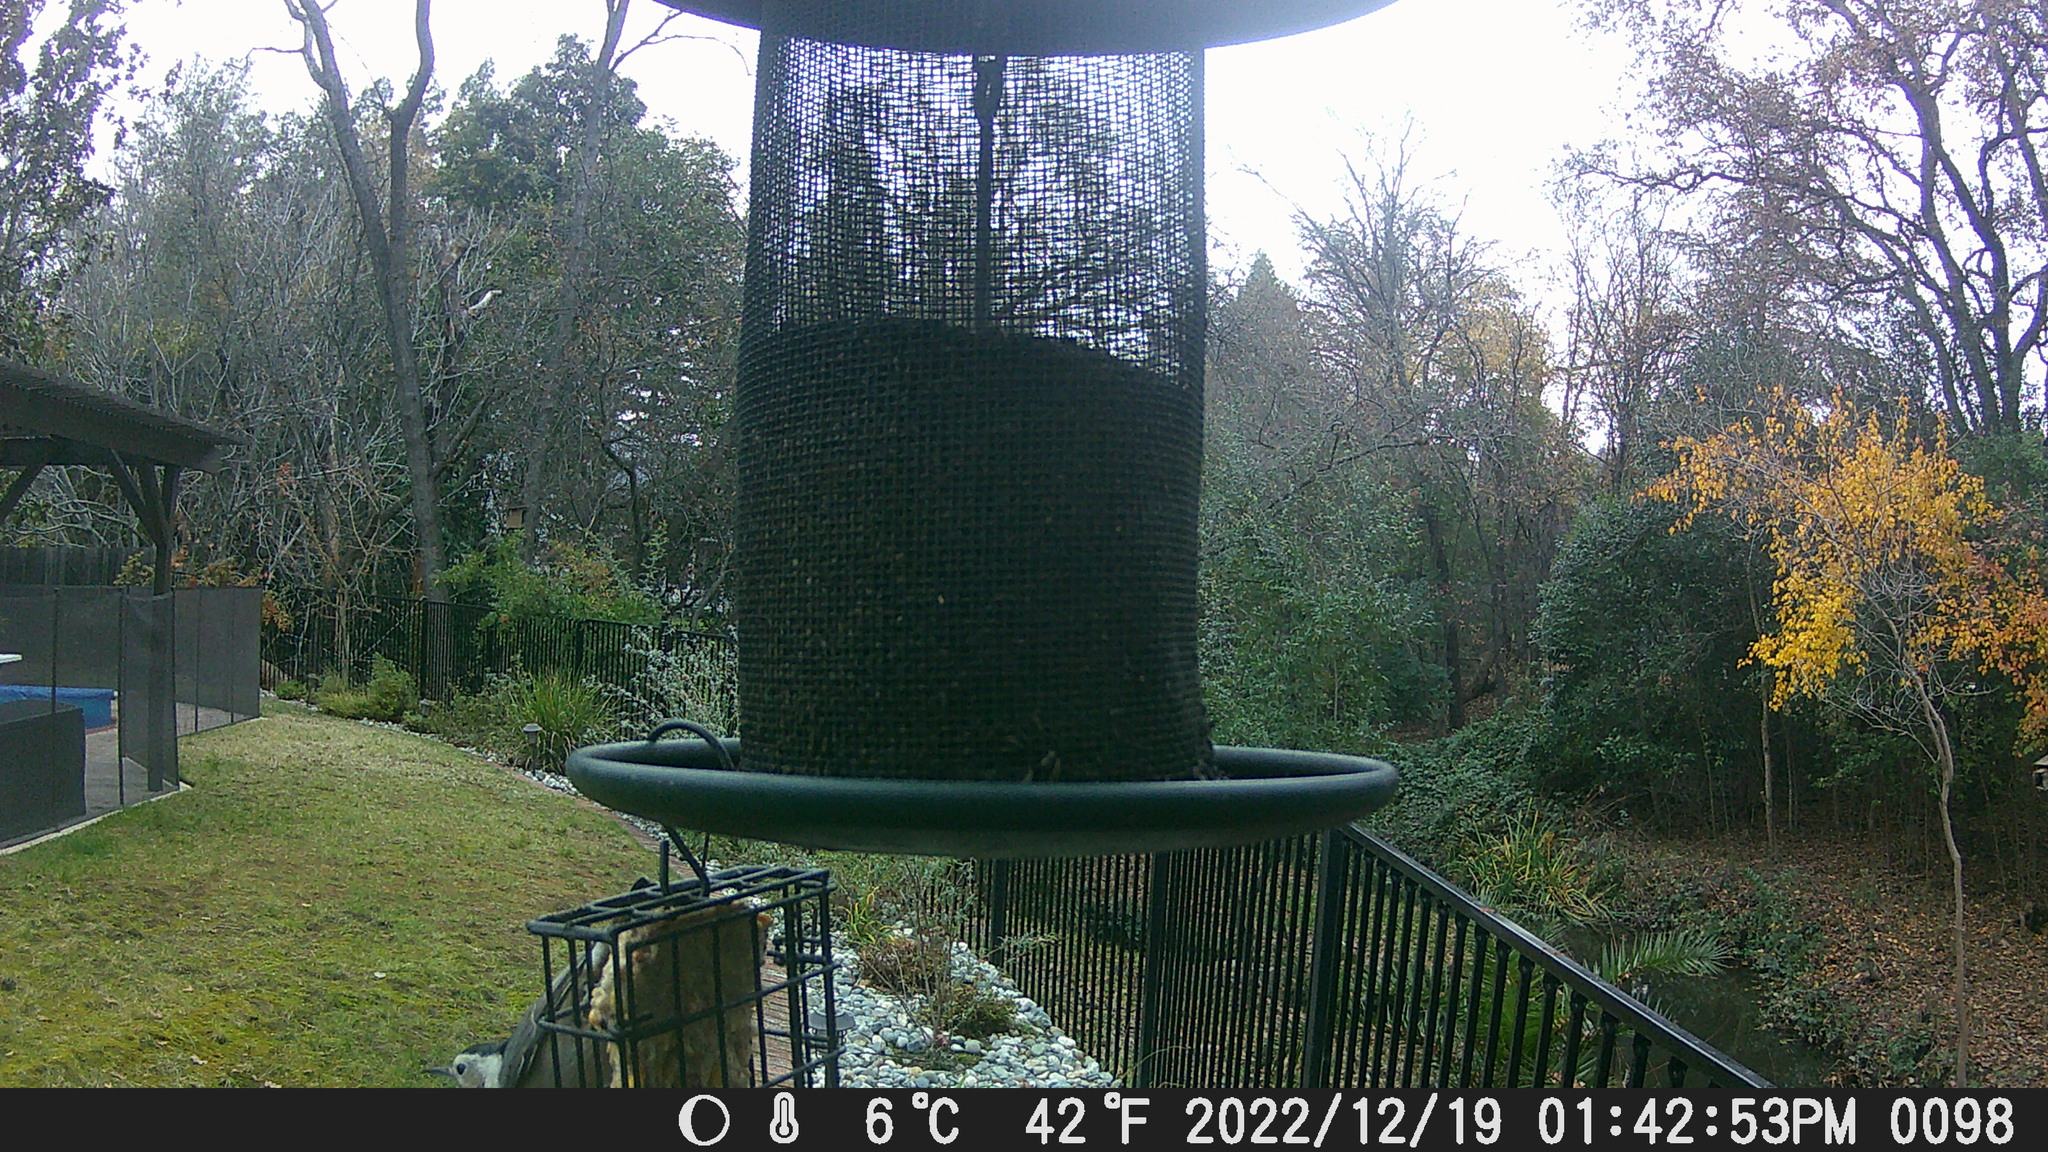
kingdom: Animalia
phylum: Chordata
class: Aves
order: Passeriformes
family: Sittidae
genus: Sitta
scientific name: Sitta carolinensis
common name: White-breasted nuthatch
